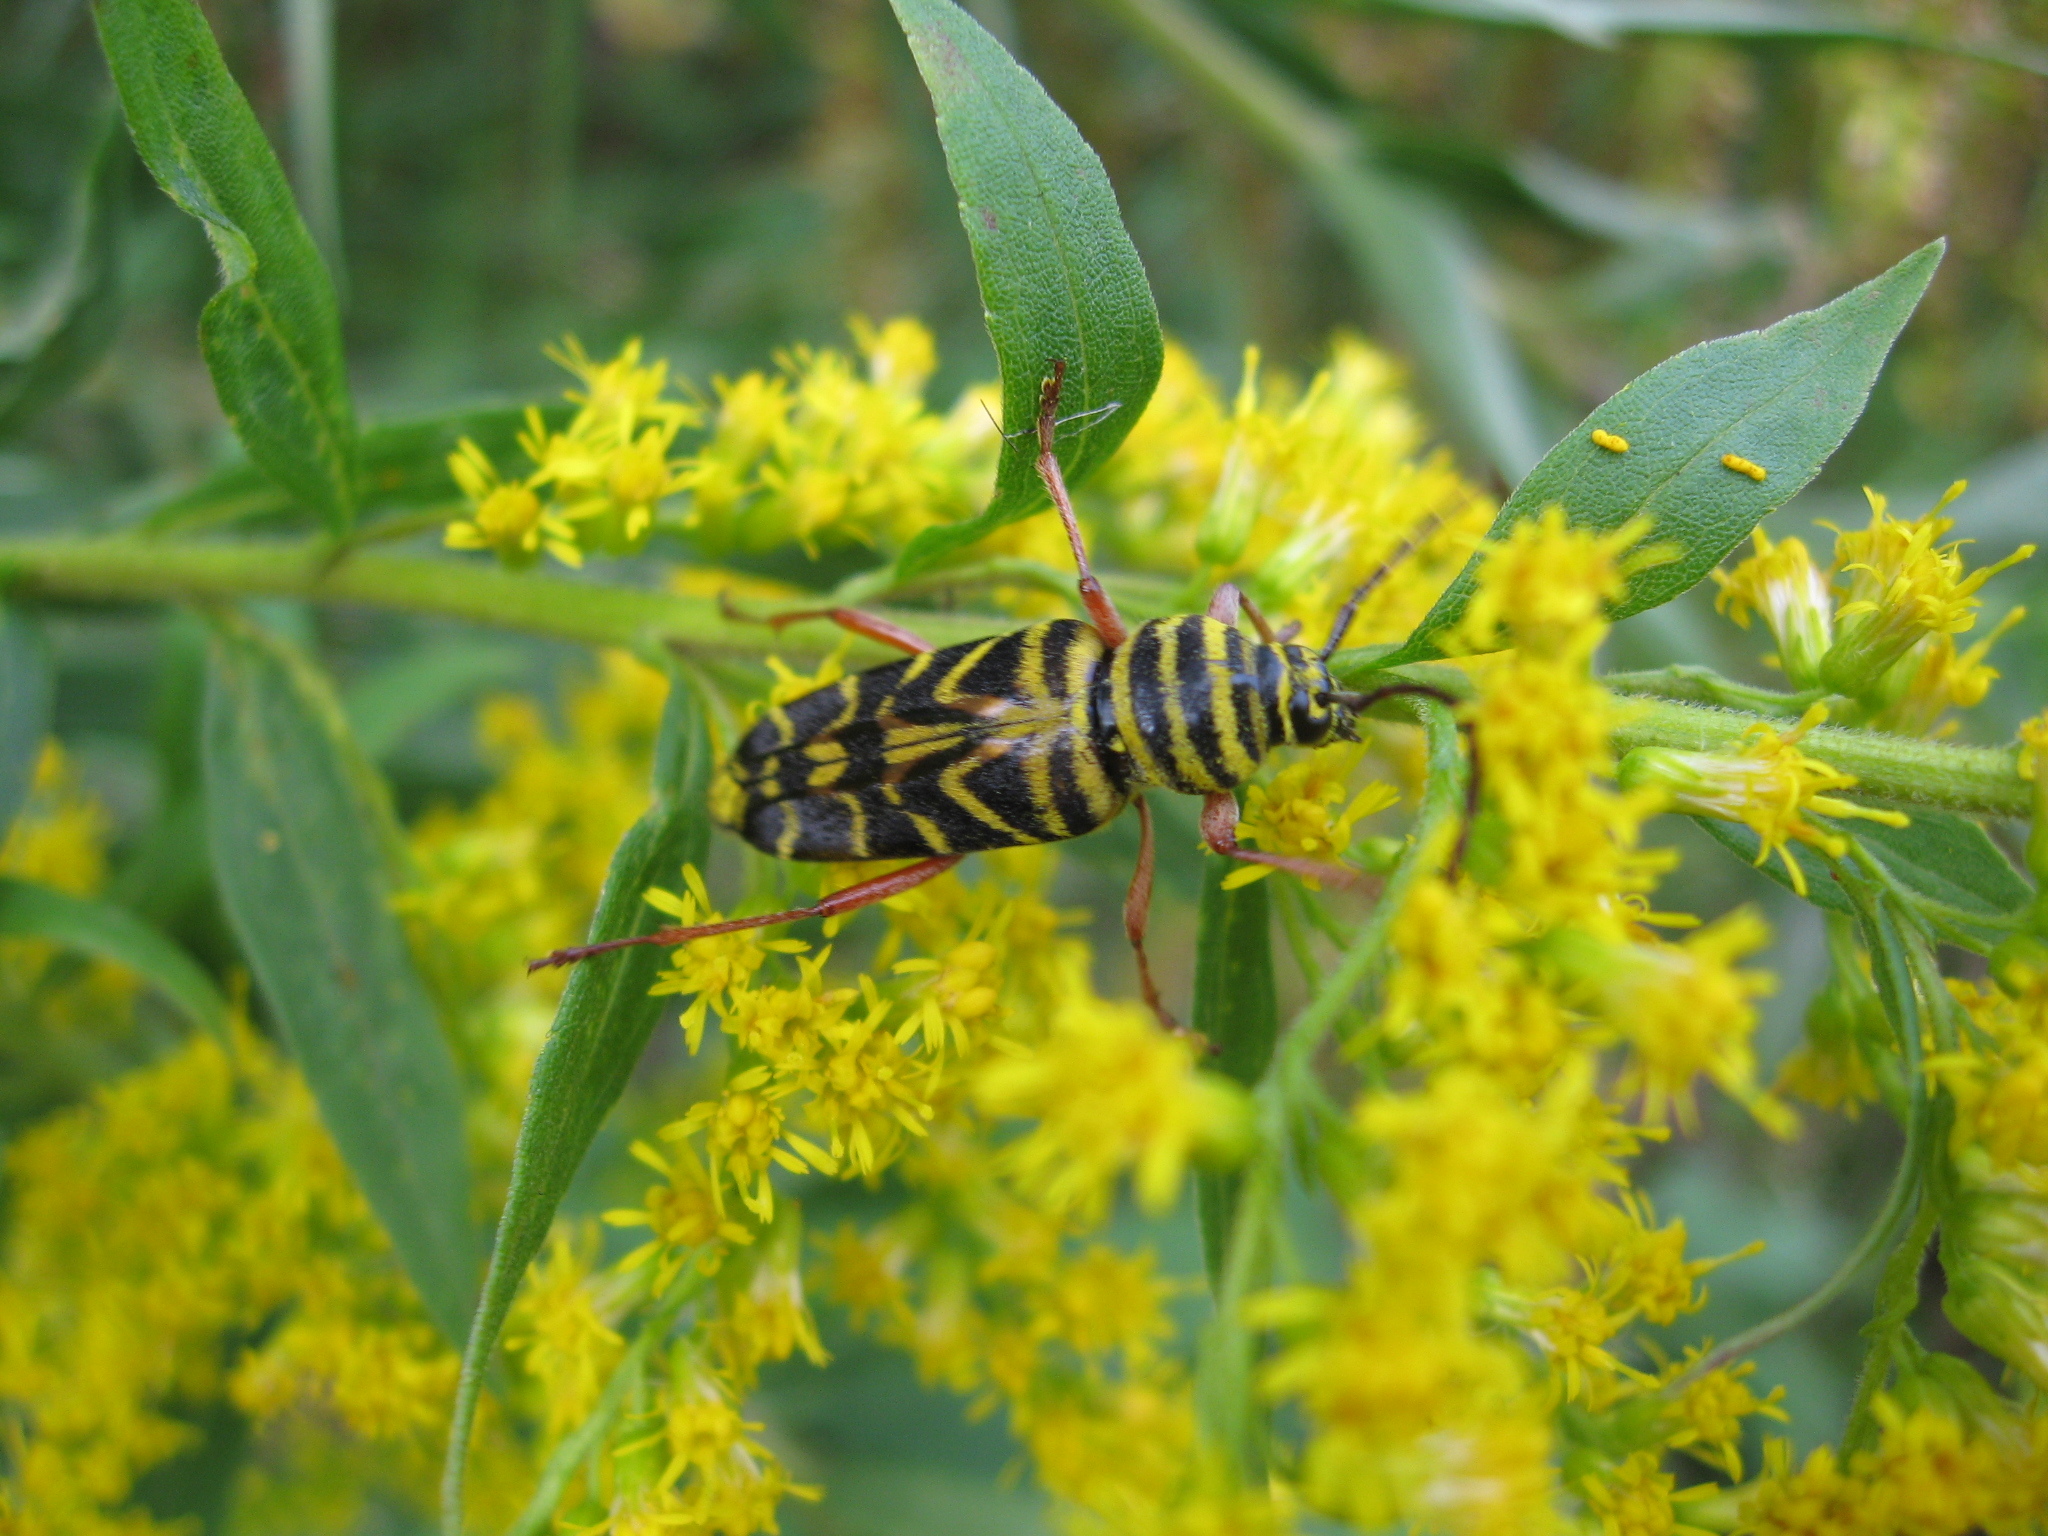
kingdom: Animalia
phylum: Arthropoda
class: Insecta
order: Coleoptera
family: Cerambycidae
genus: Megacyllene
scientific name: Megacyllene robiniae
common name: Locust borer
